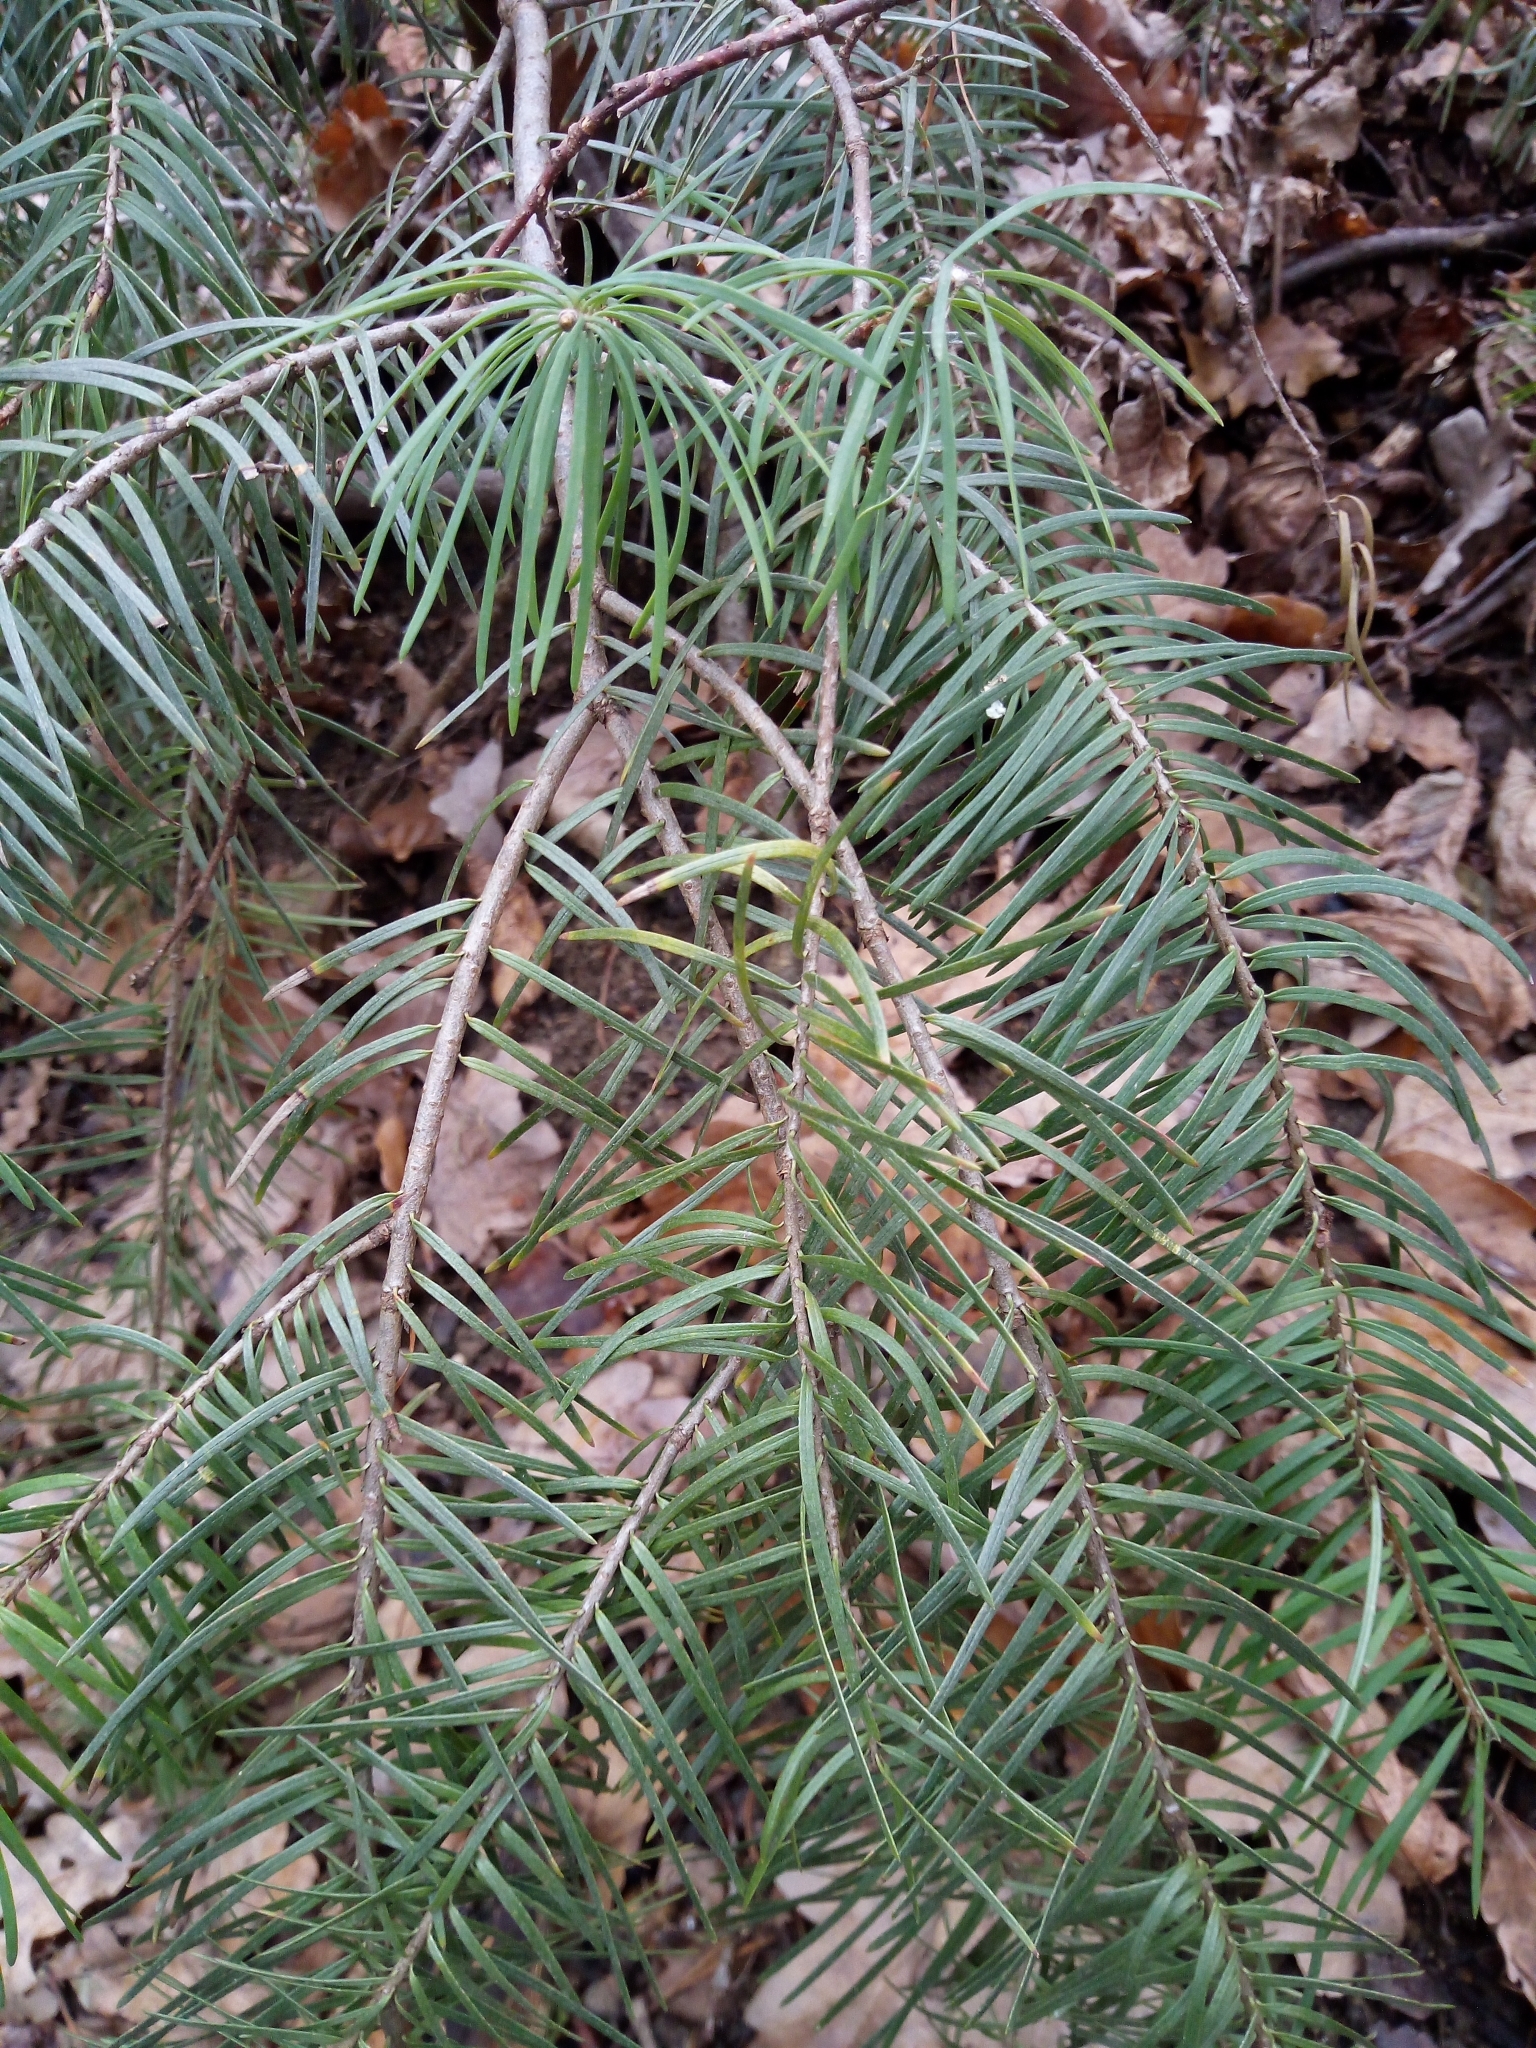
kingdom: Plantae
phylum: Tracheophyta
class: Pinopsida
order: Pinales
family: Pinaceae
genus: Pseudotsuga
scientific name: Pseudotsuga menziesii
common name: Douglas fir
